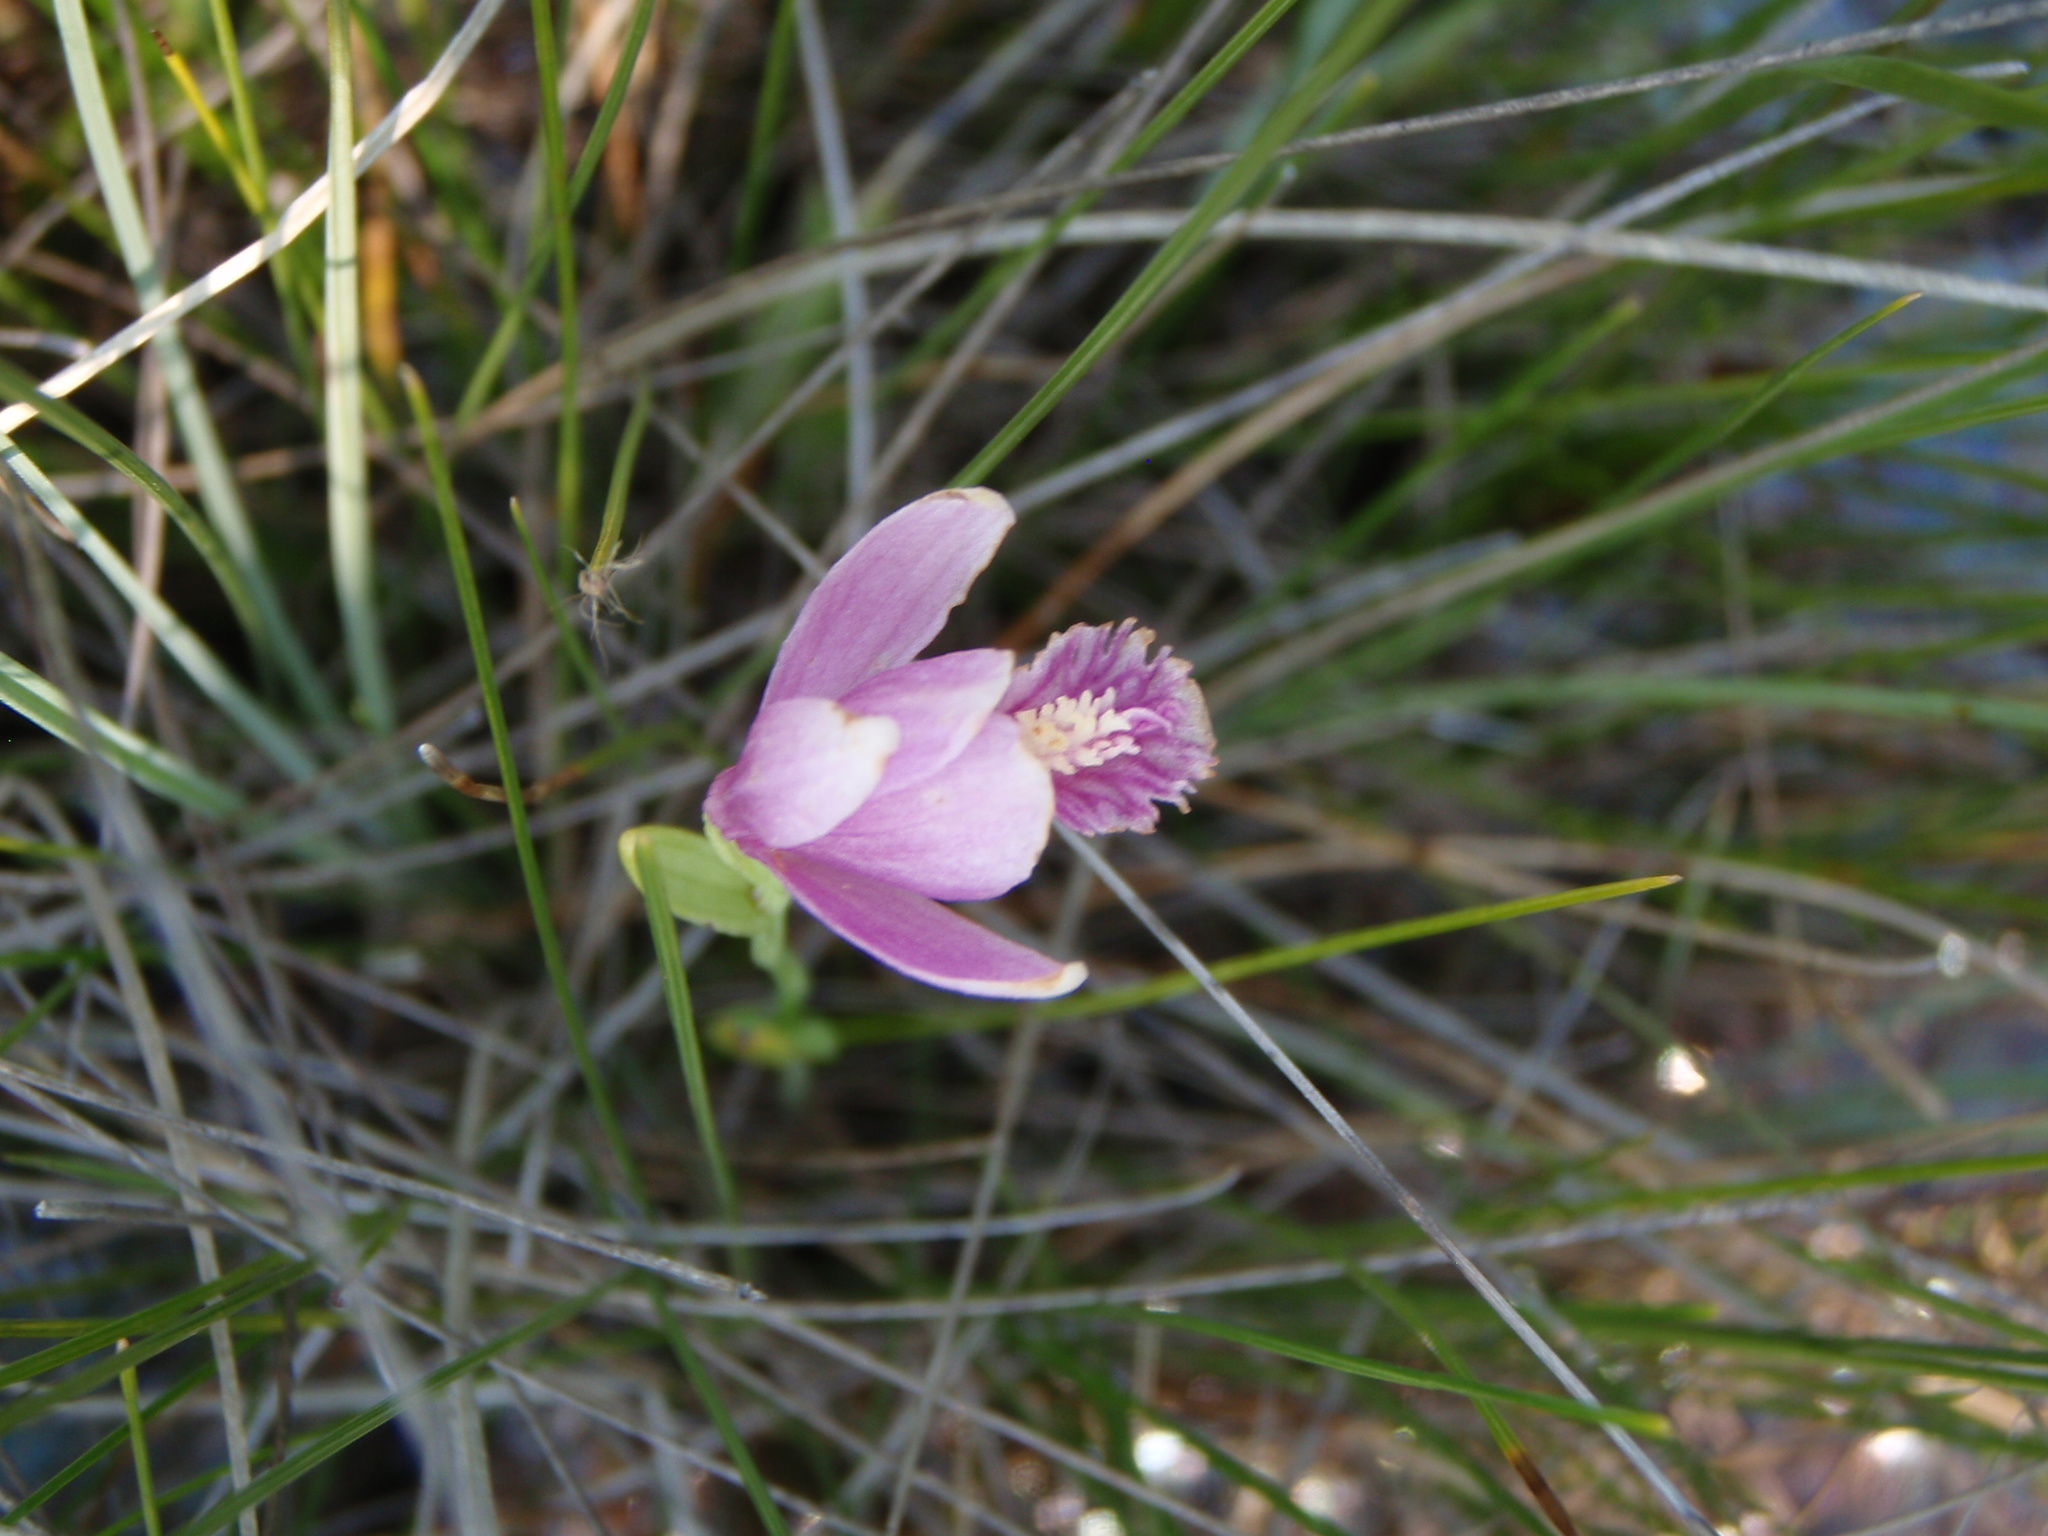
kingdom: Plantae
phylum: Tracheophyta
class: Liliopsida
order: Asparagales
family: Orchidaceae
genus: Pogonia
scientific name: Pogonia ophioglossoides
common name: Rose pogonia
